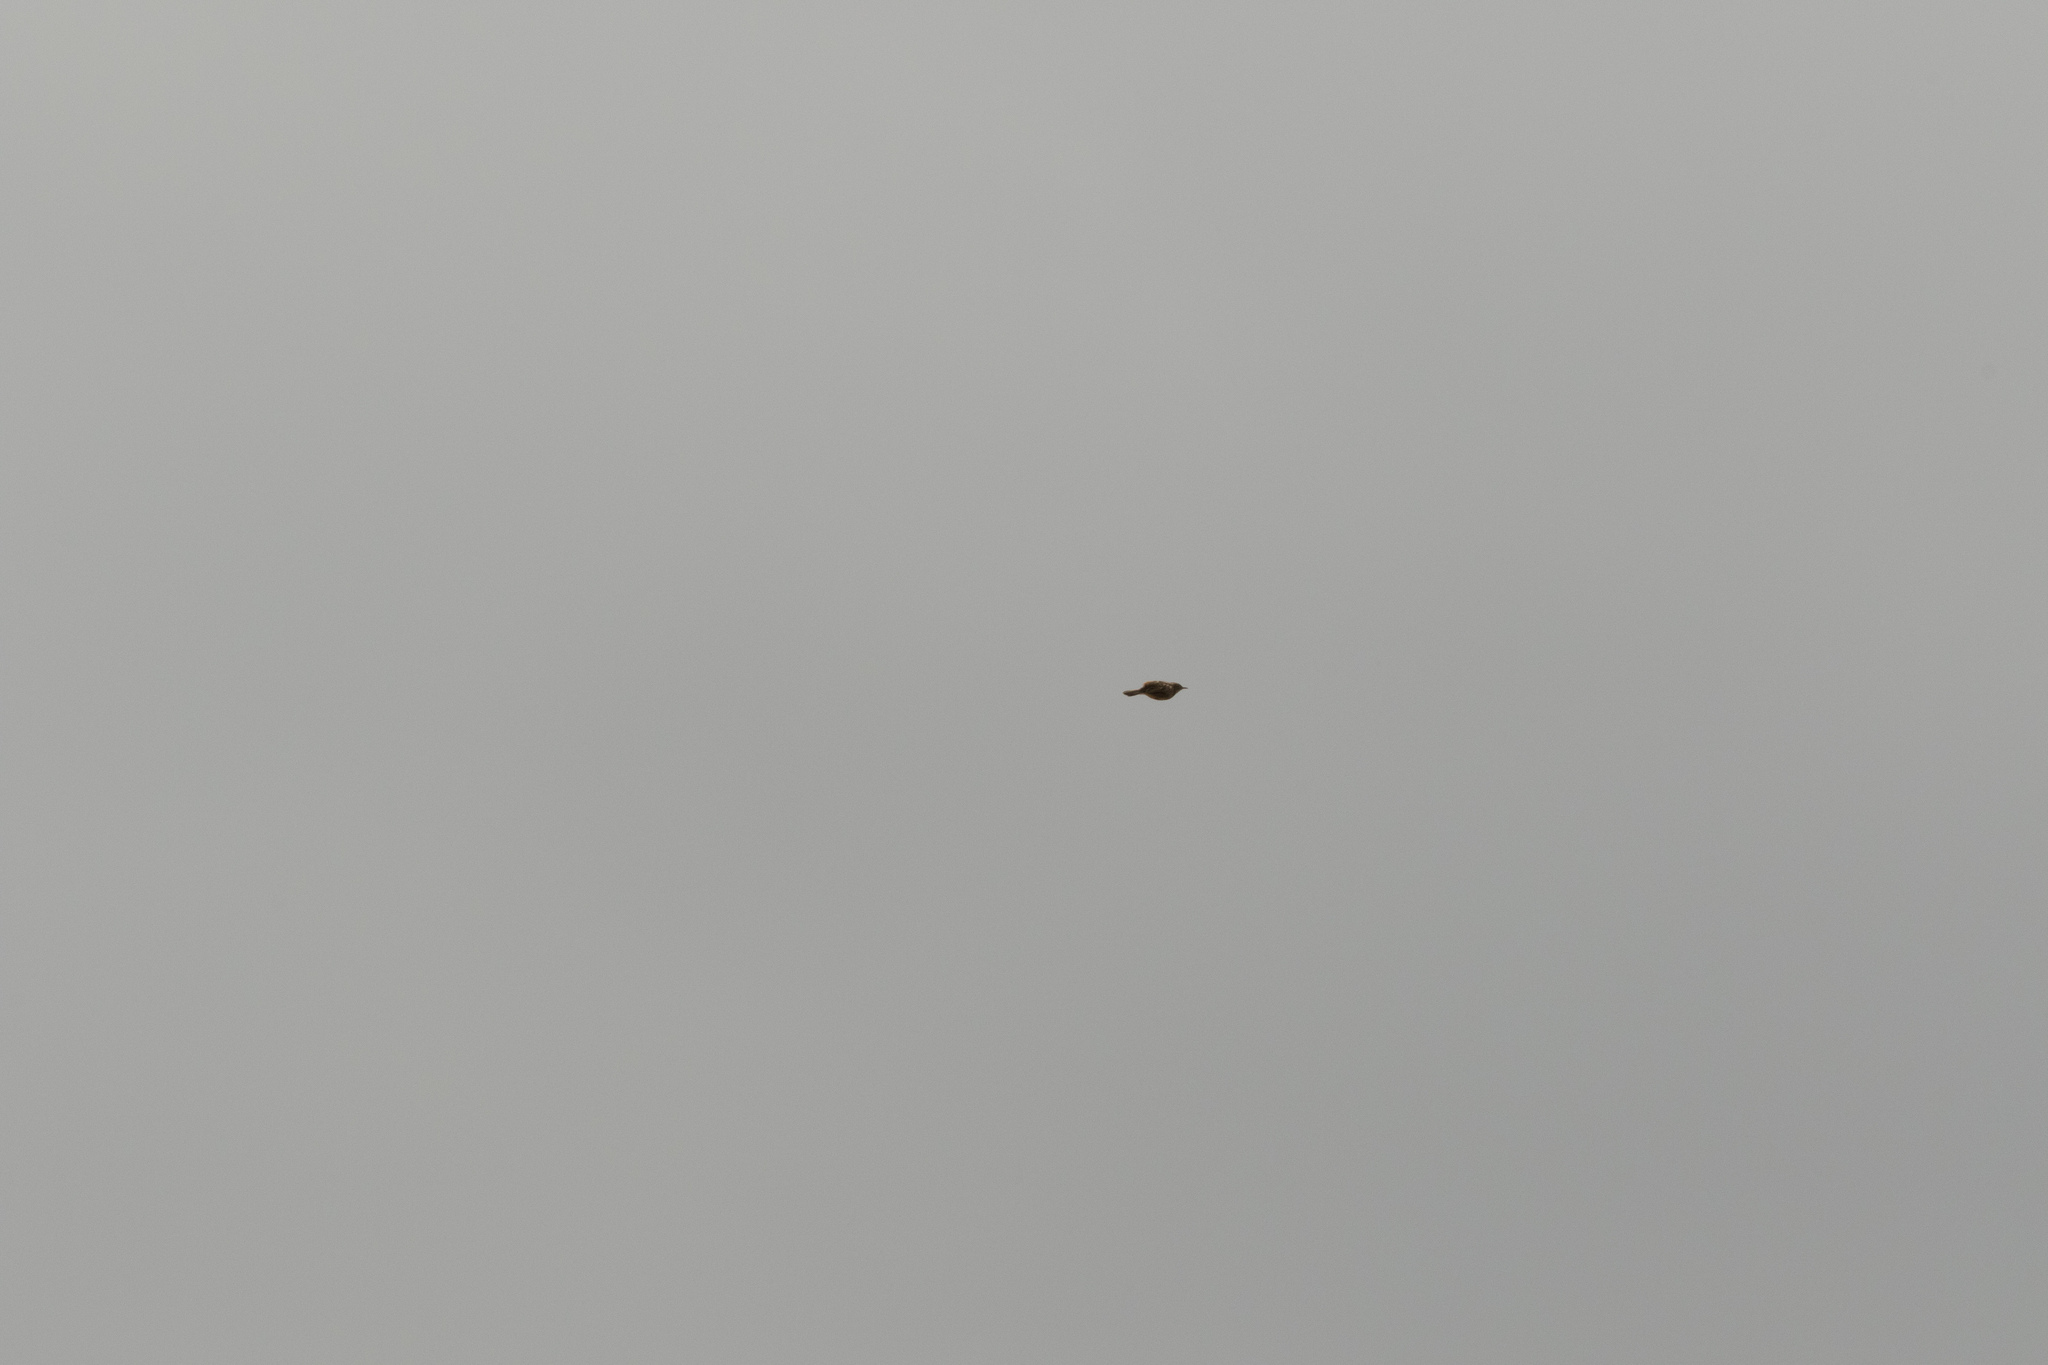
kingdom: Animalia
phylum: Chordata
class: Aves
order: Passeriformes
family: Cisticolidae
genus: Cisticola
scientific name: Cisticola juncidis
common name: Zitting cisticola
